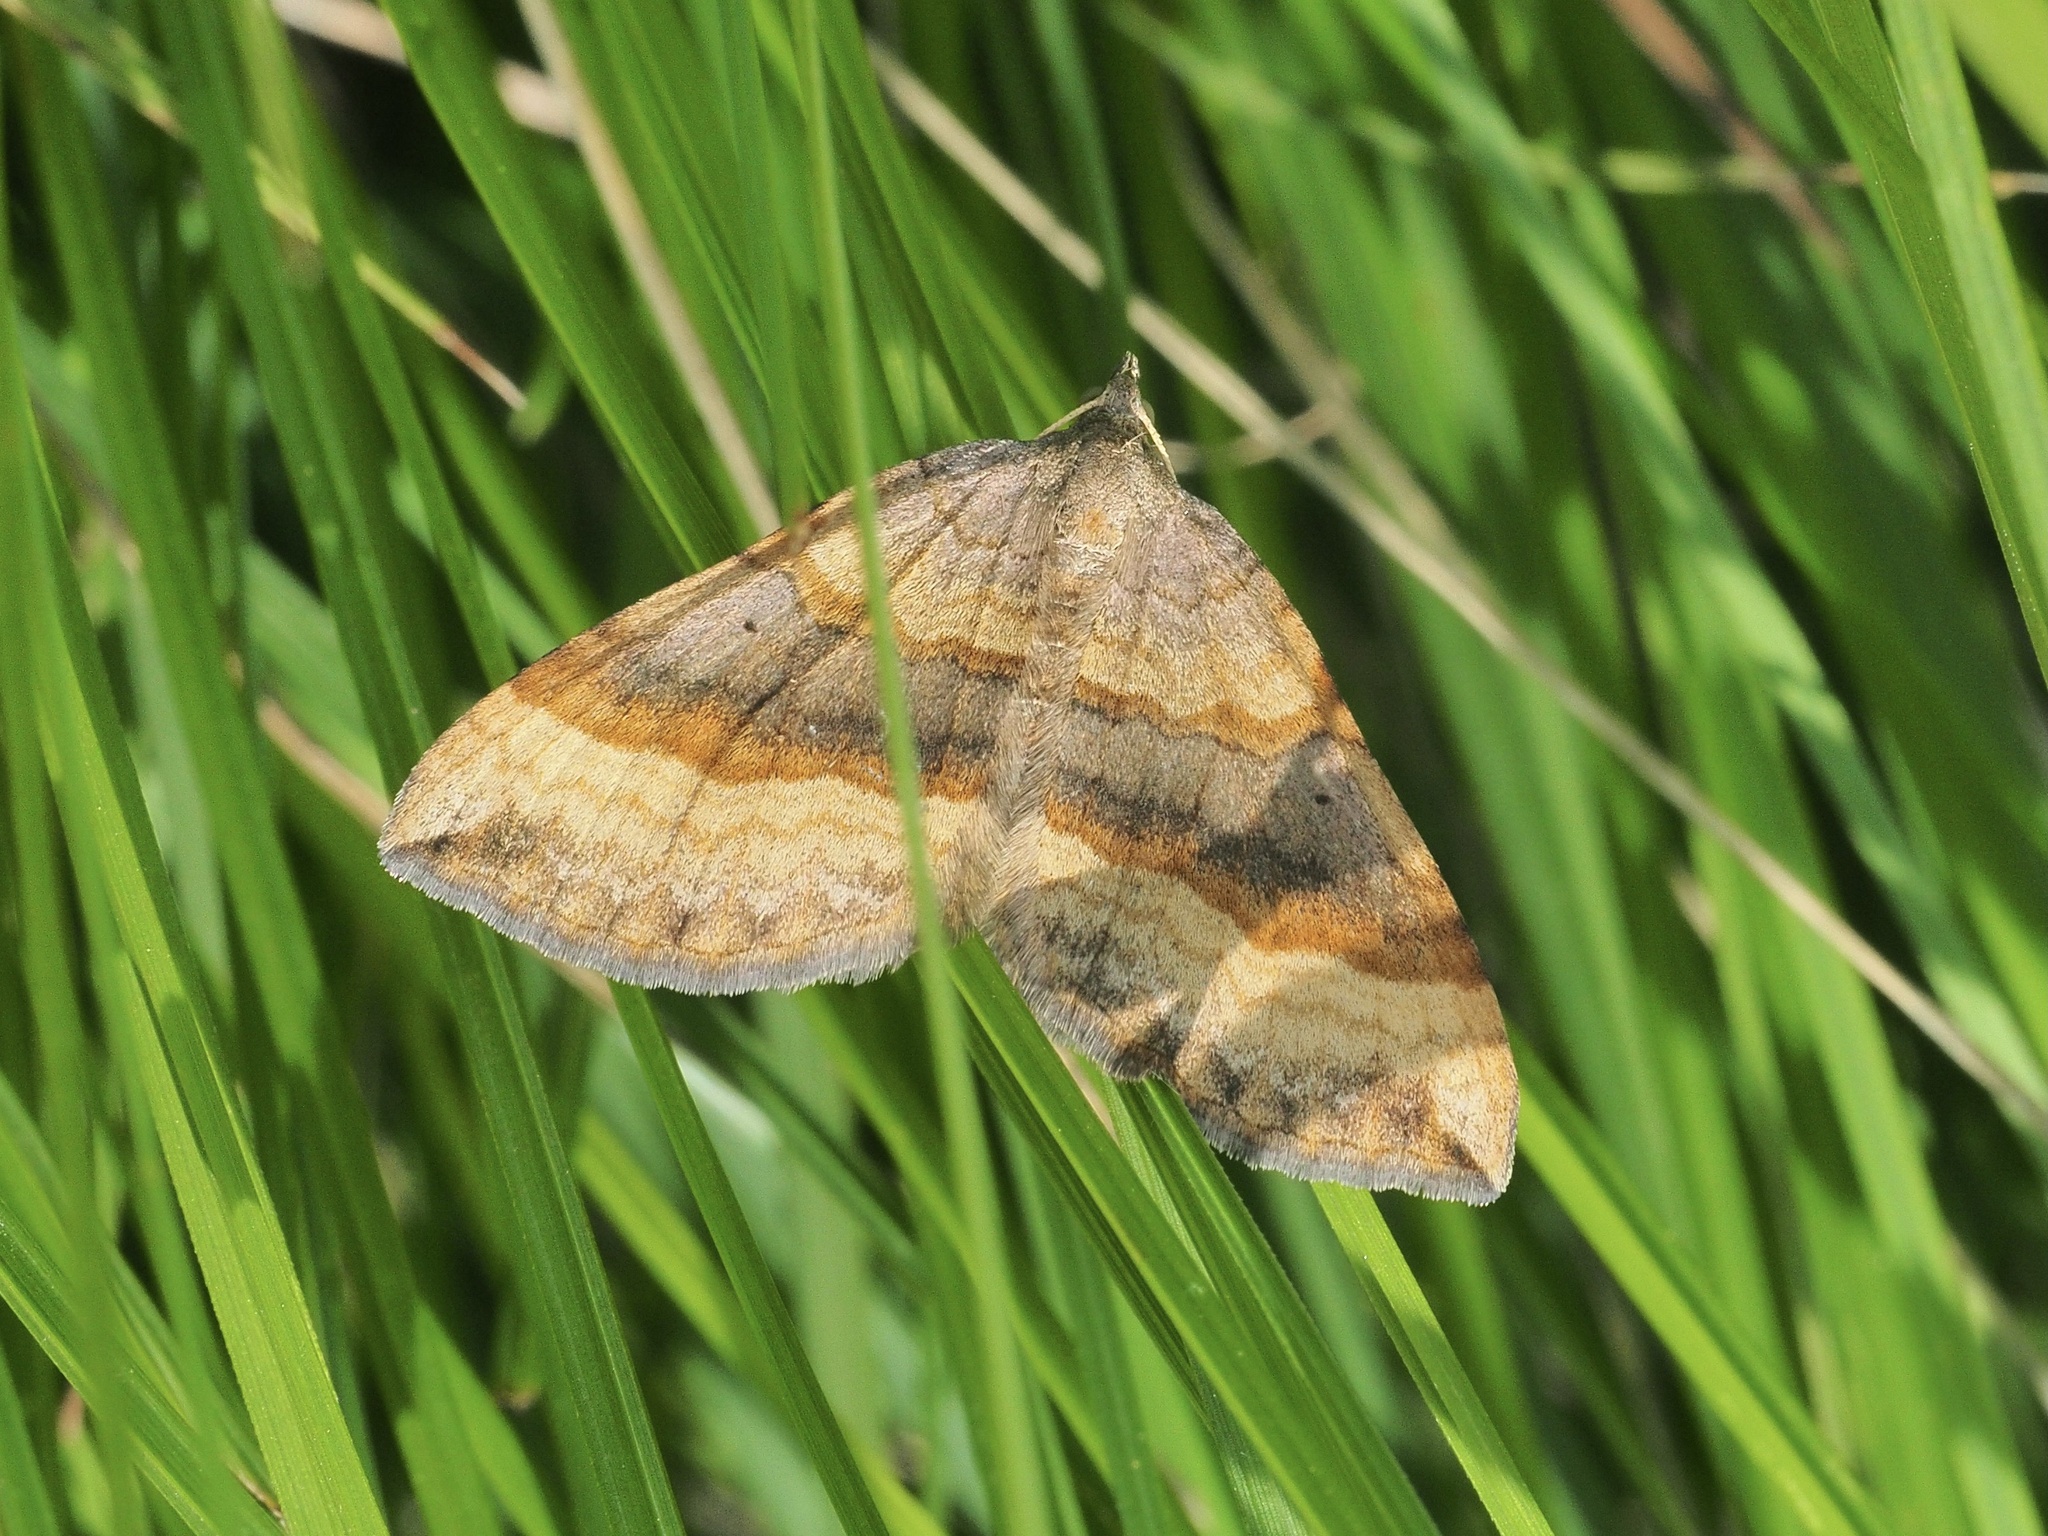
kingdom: Animalia
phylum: Arthropoda
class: Insecta
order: Lepidoptera
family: Geometridae
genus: Scotopteryx
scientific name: Scotopteryx chenopodiata
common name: Shaded broad-bar
